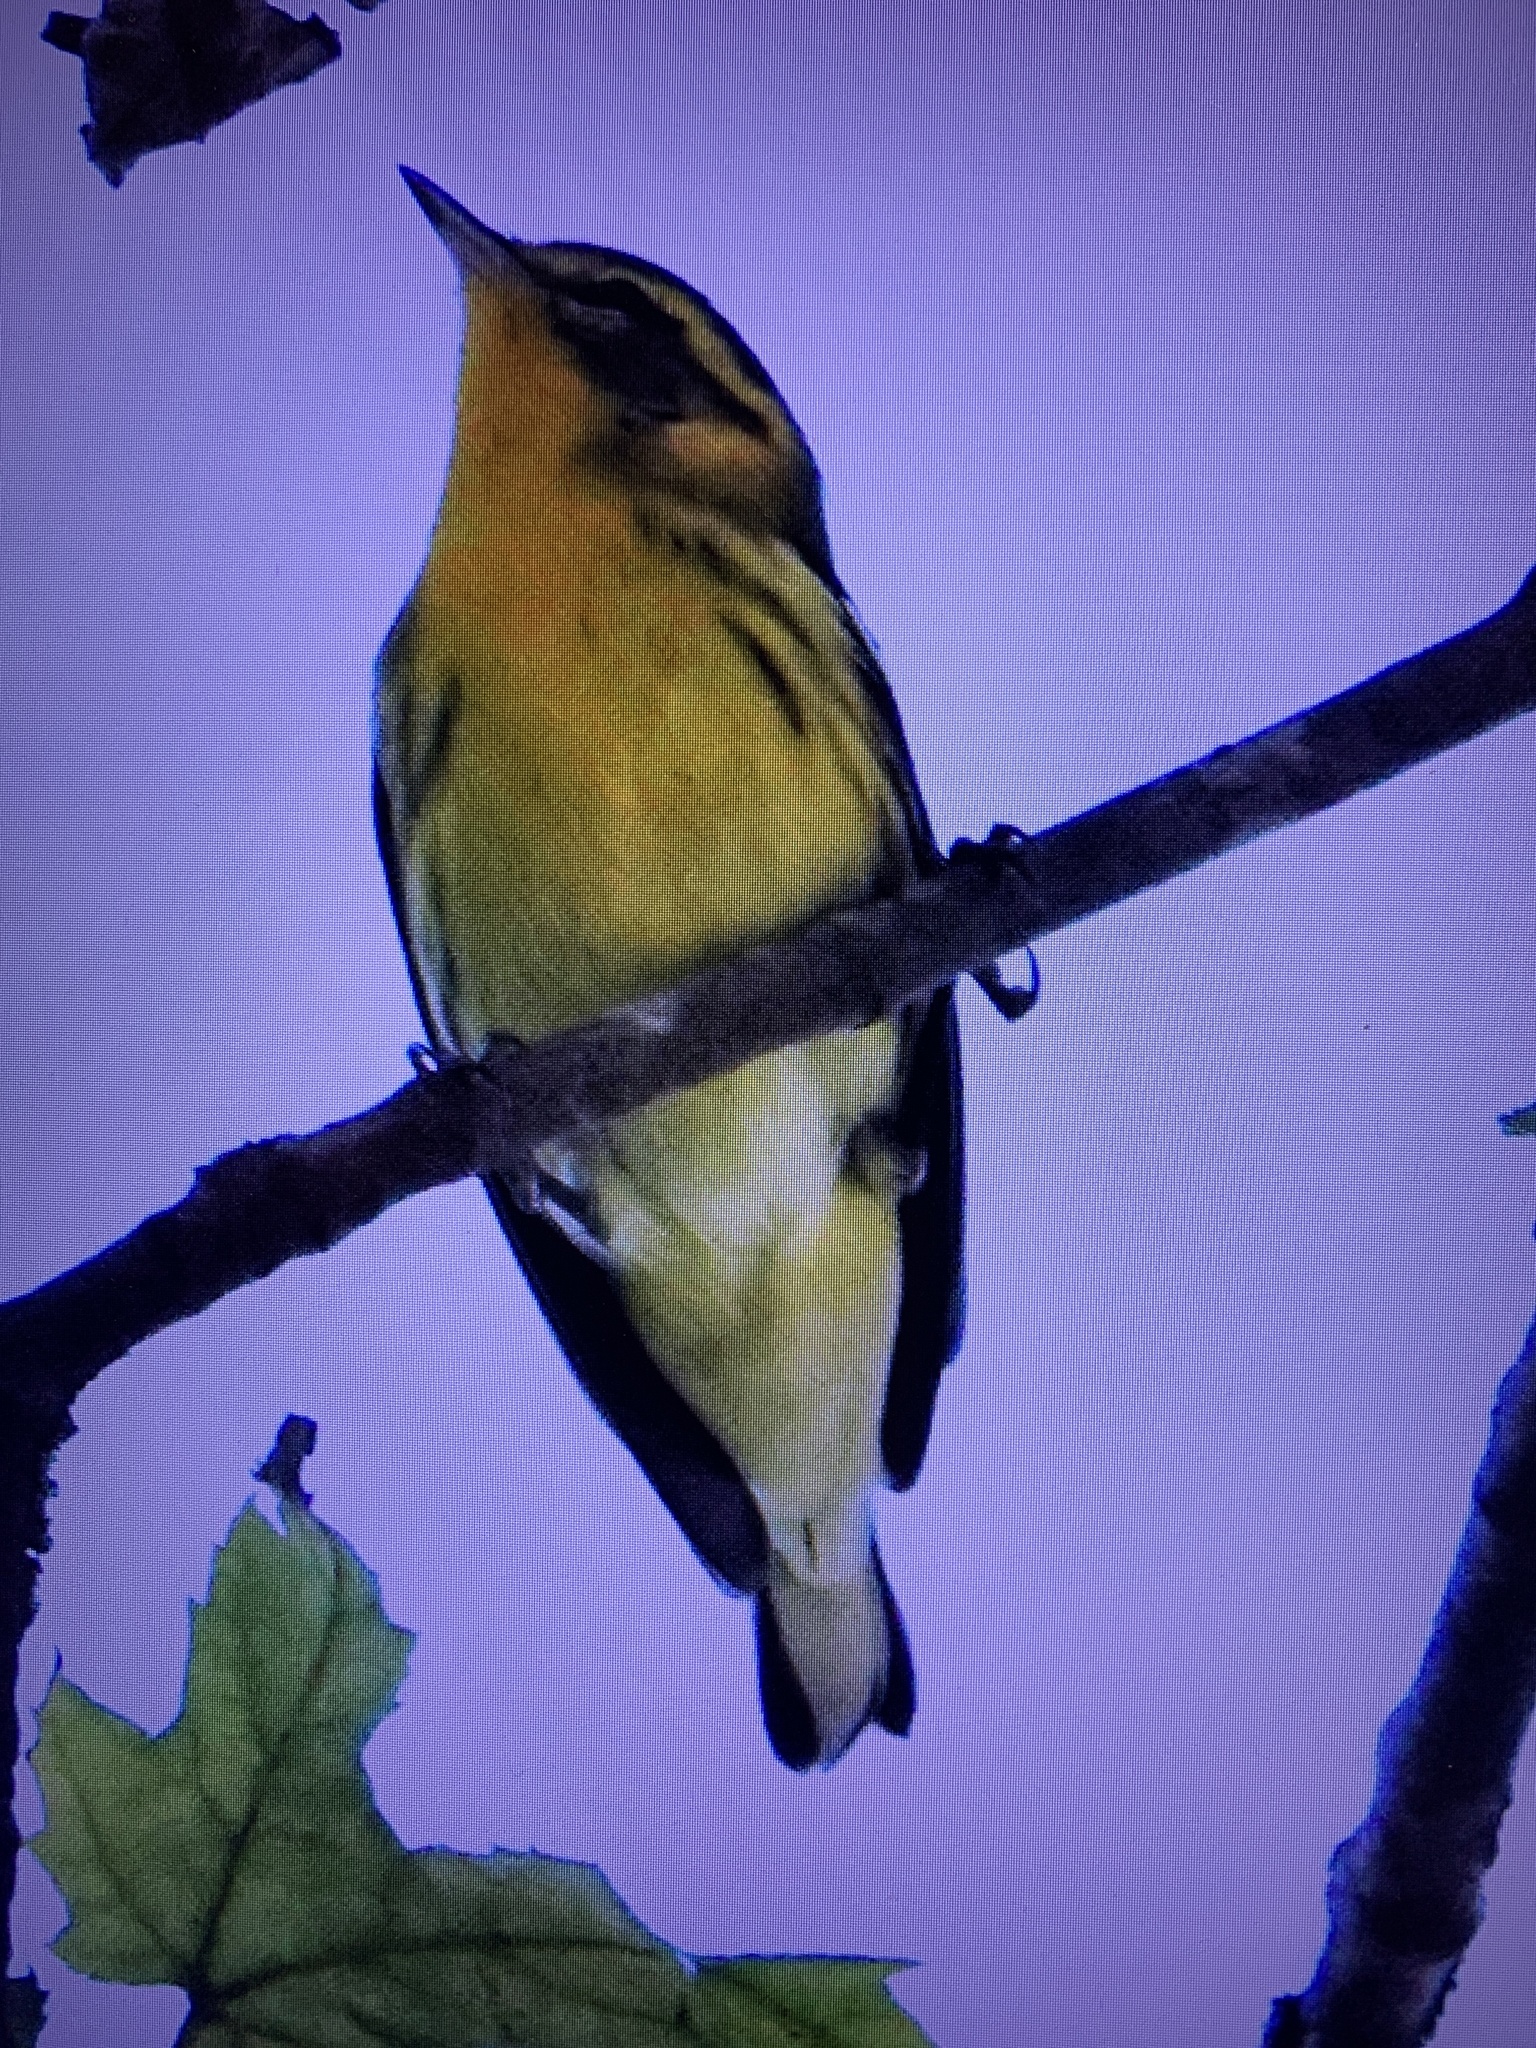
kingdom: Animalia
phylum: Chordata
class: Aves
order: Passeriformes
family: Parulidae
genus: Setophaga
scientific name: Setophaga fusca
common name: Blackburnian warbler
